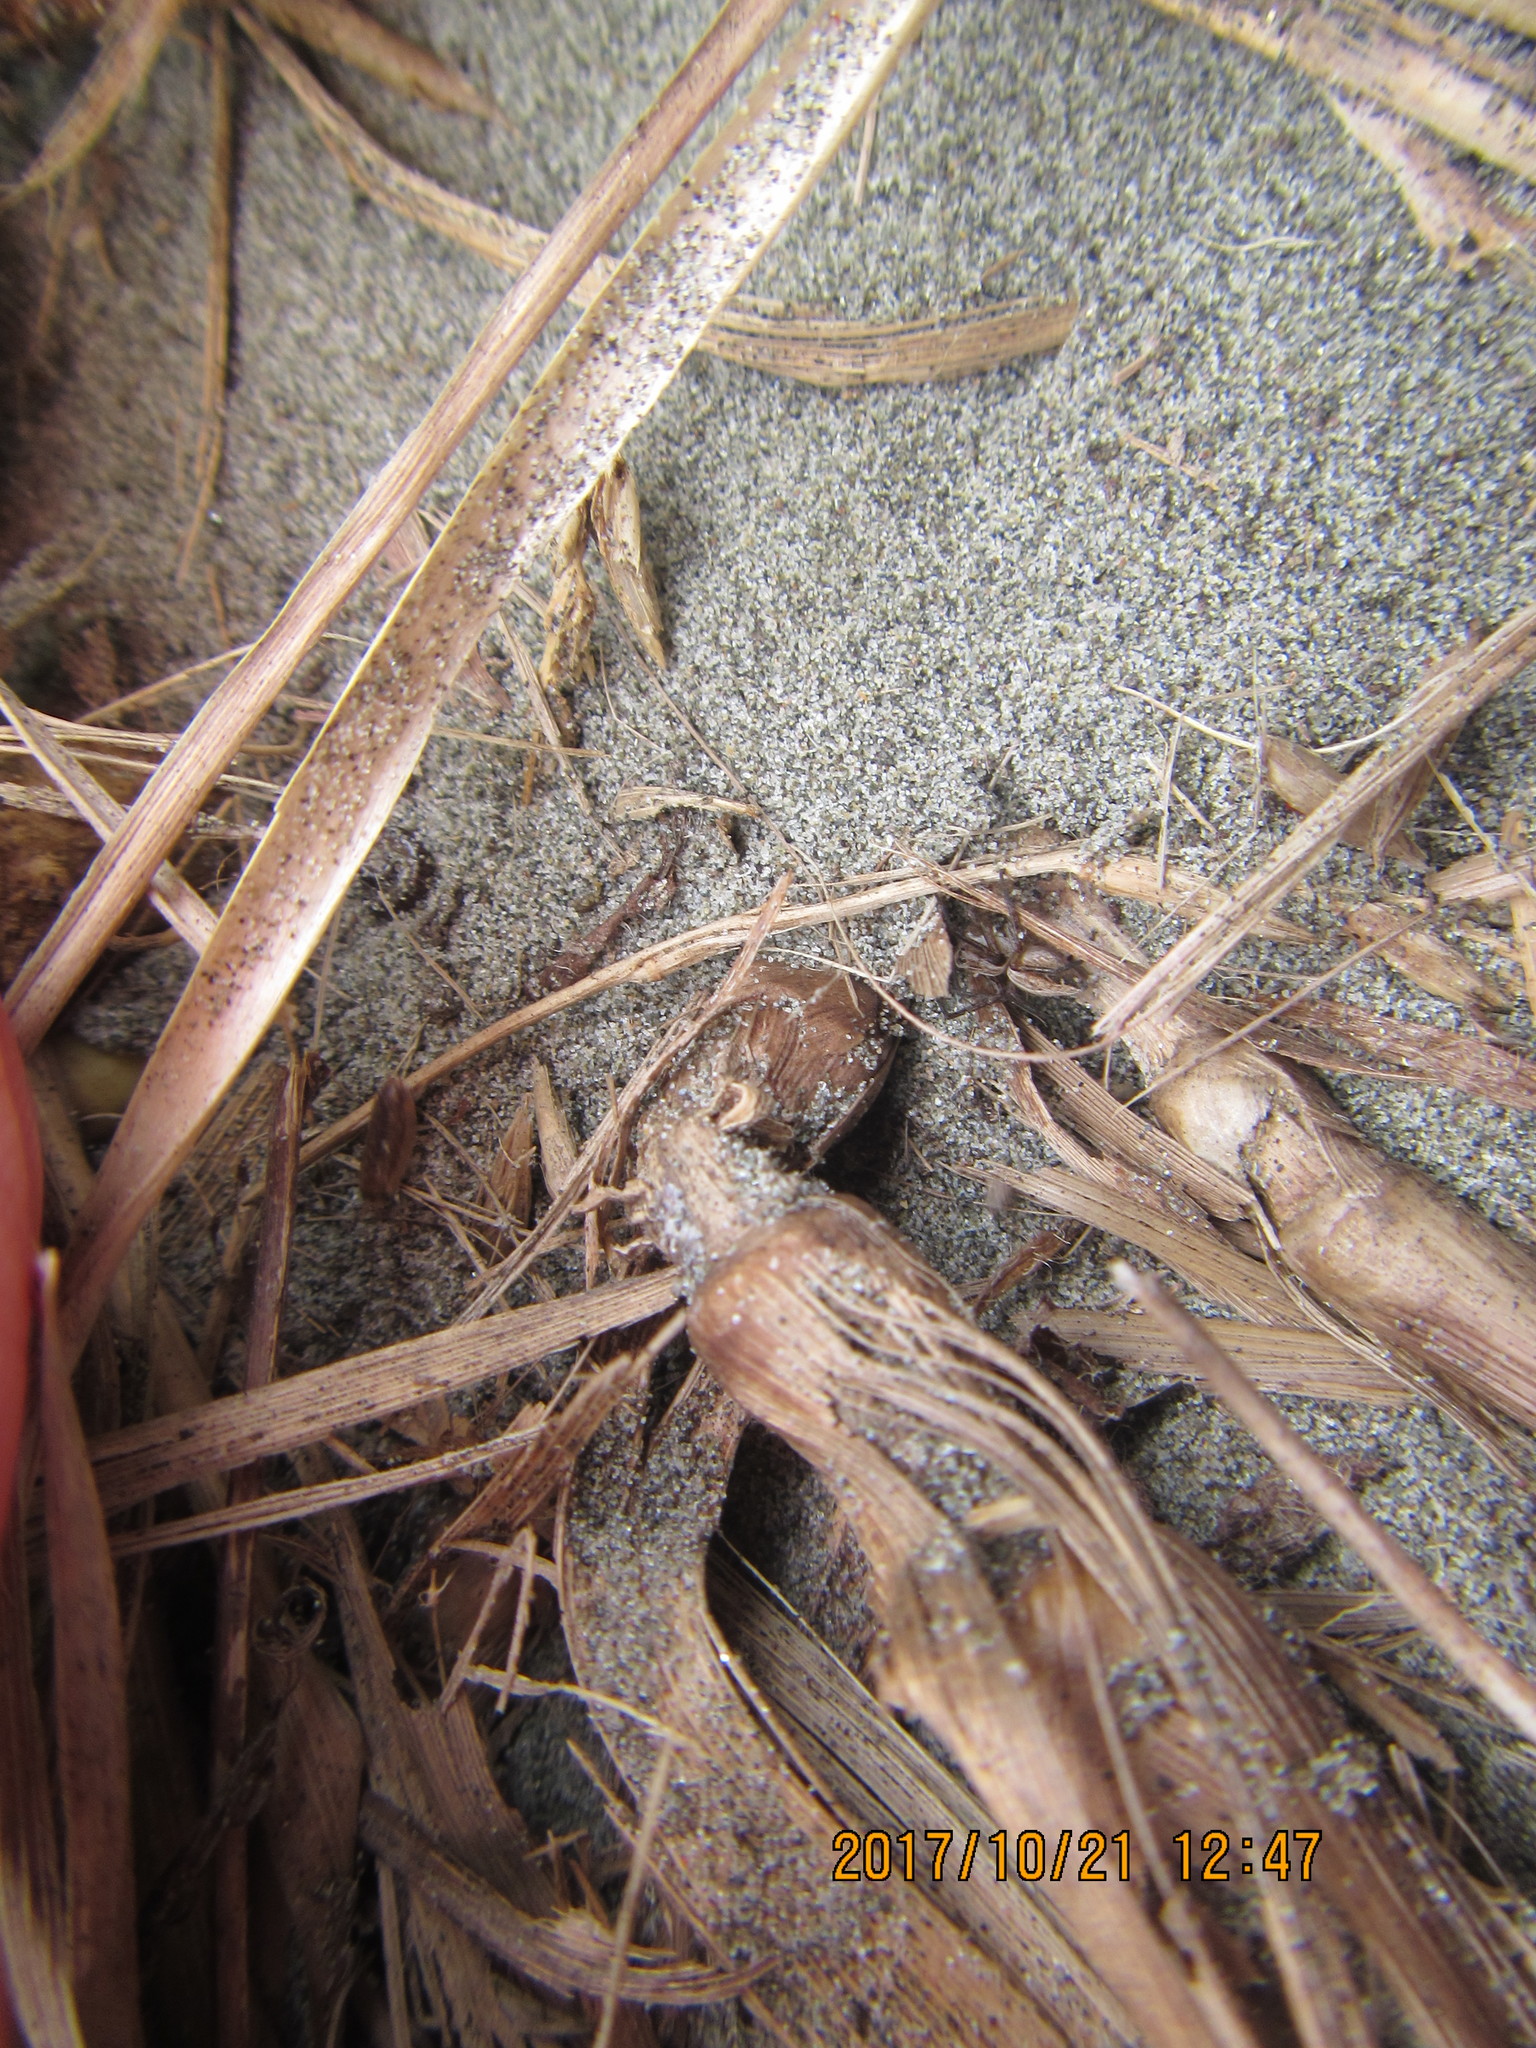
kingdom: Animalia
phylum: Arthropoda
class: Arachnida
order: Araneae
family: Oxyopidae
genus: Oxyopes
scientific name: Oxyopes gracilipes
